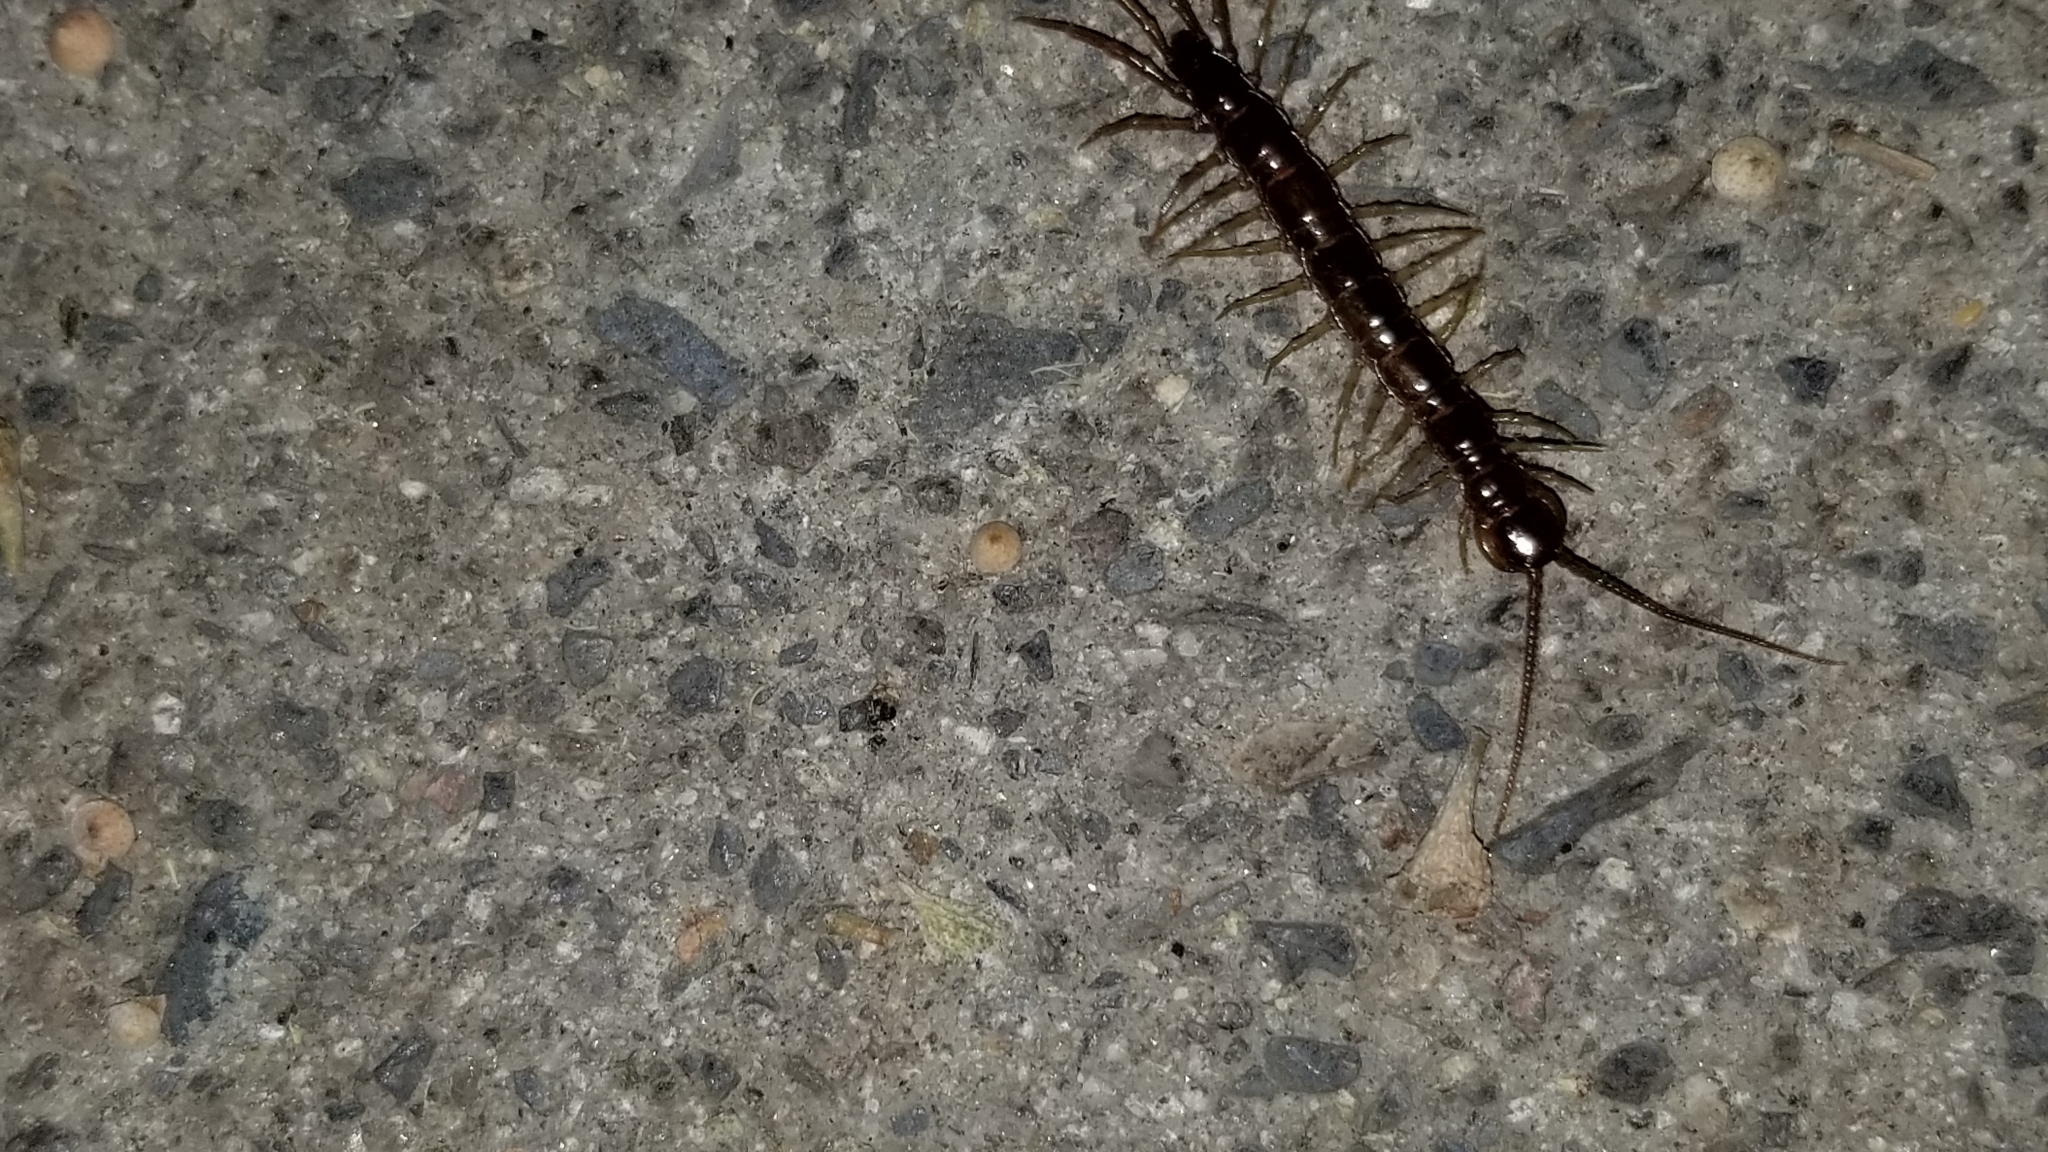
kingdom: Animalia
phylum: Arthropoda
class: Chilopoda
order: Lithobiomorpha
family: Lithobiidae
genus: Lithobius
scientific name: Lithobius
